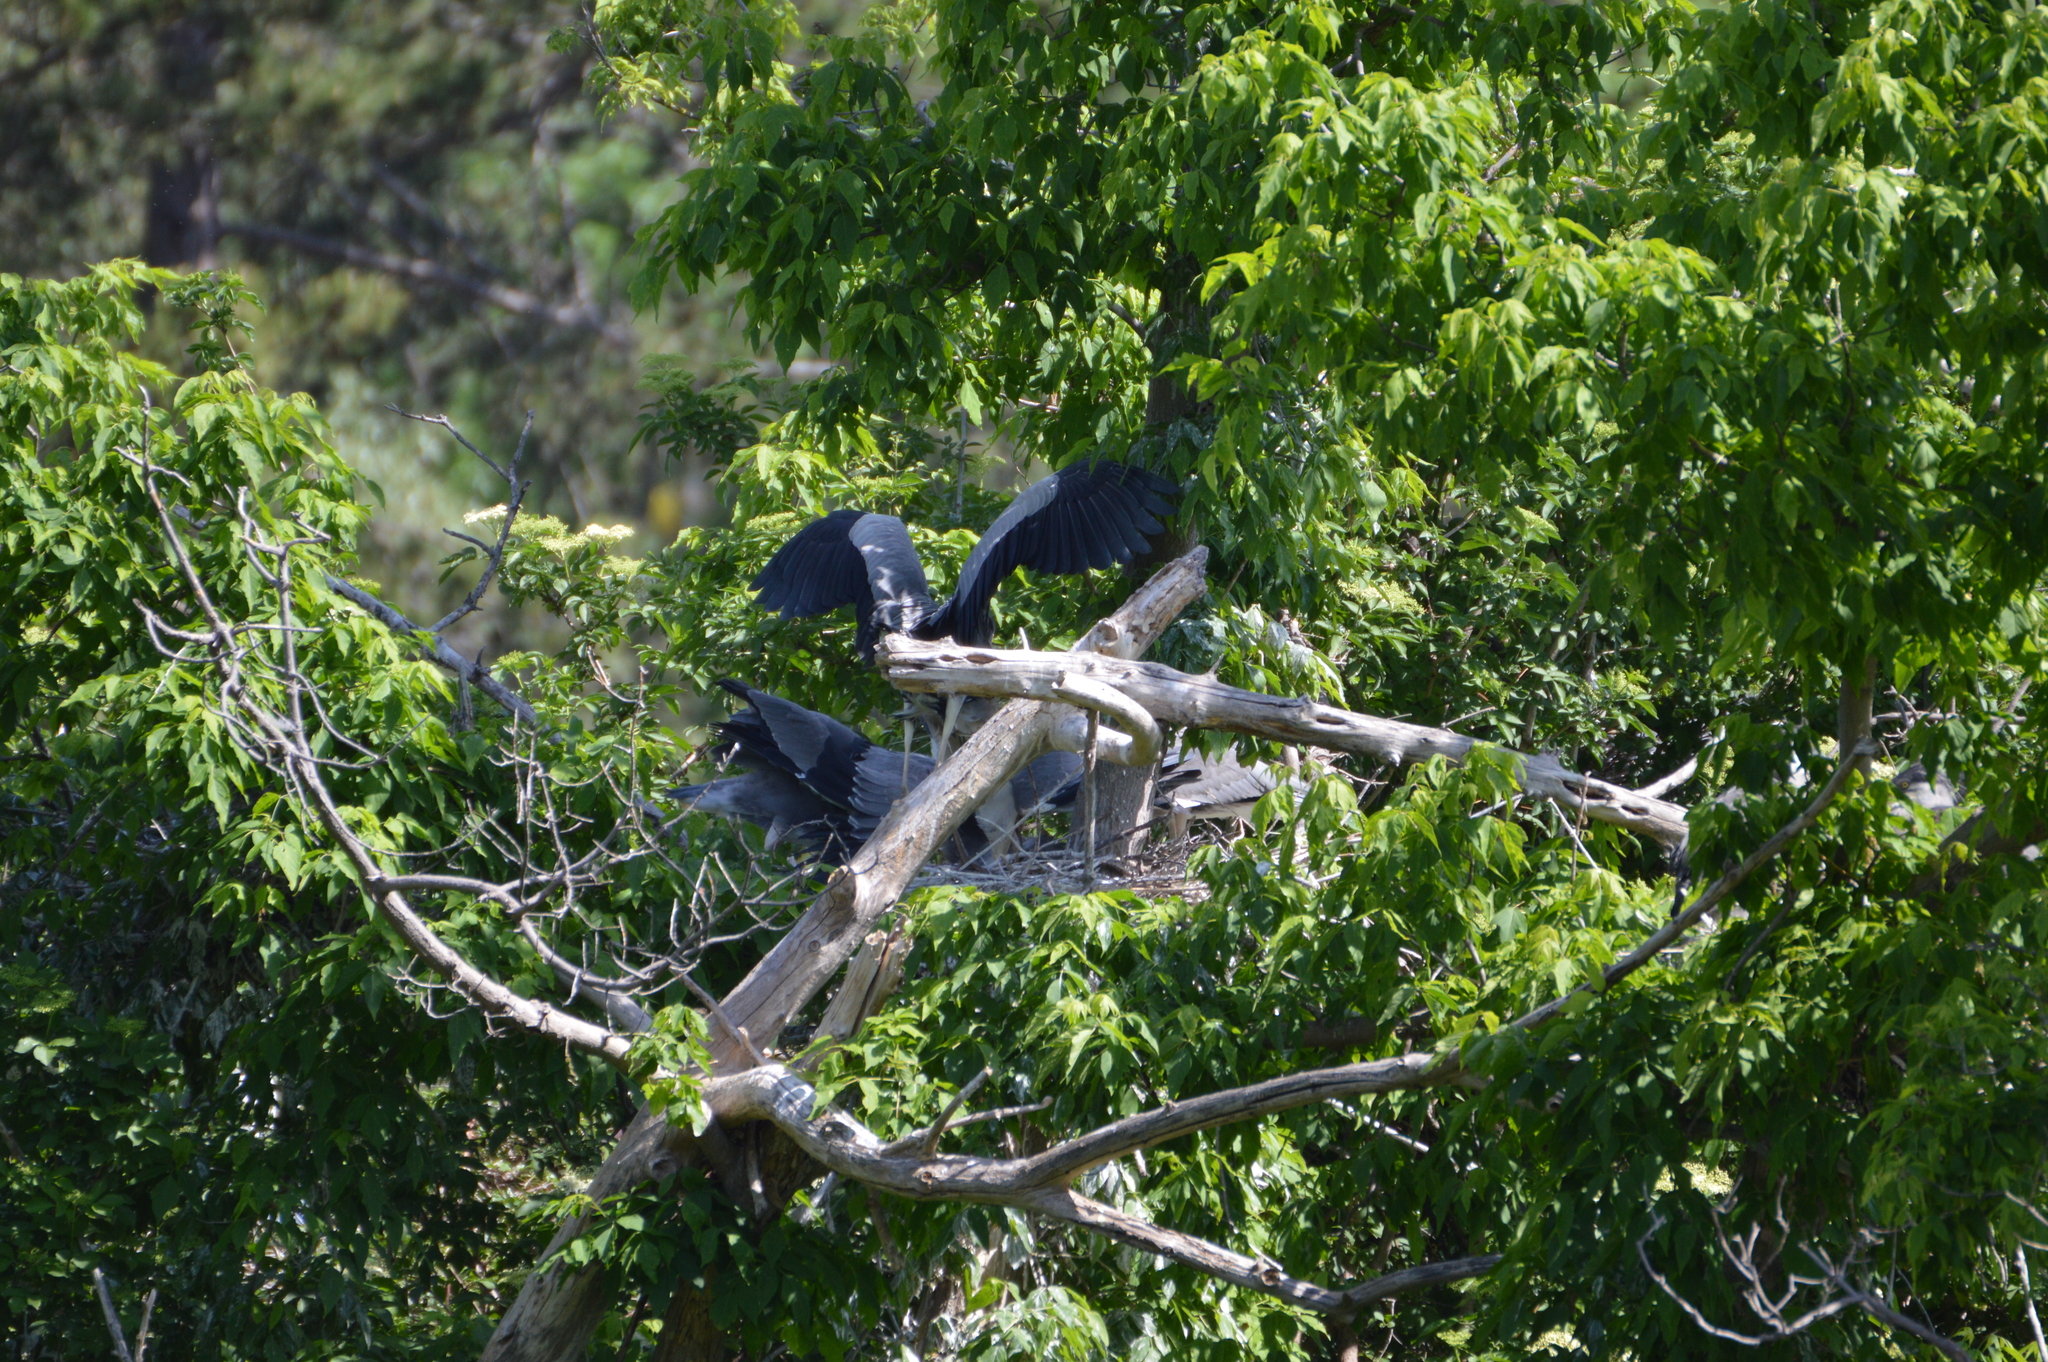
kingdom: Animalia
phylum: Chordata
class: Aves
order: Pelecaniformes
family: Ardeidae
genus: Ardea
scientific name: Ardea cinerea
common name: Grey heron
